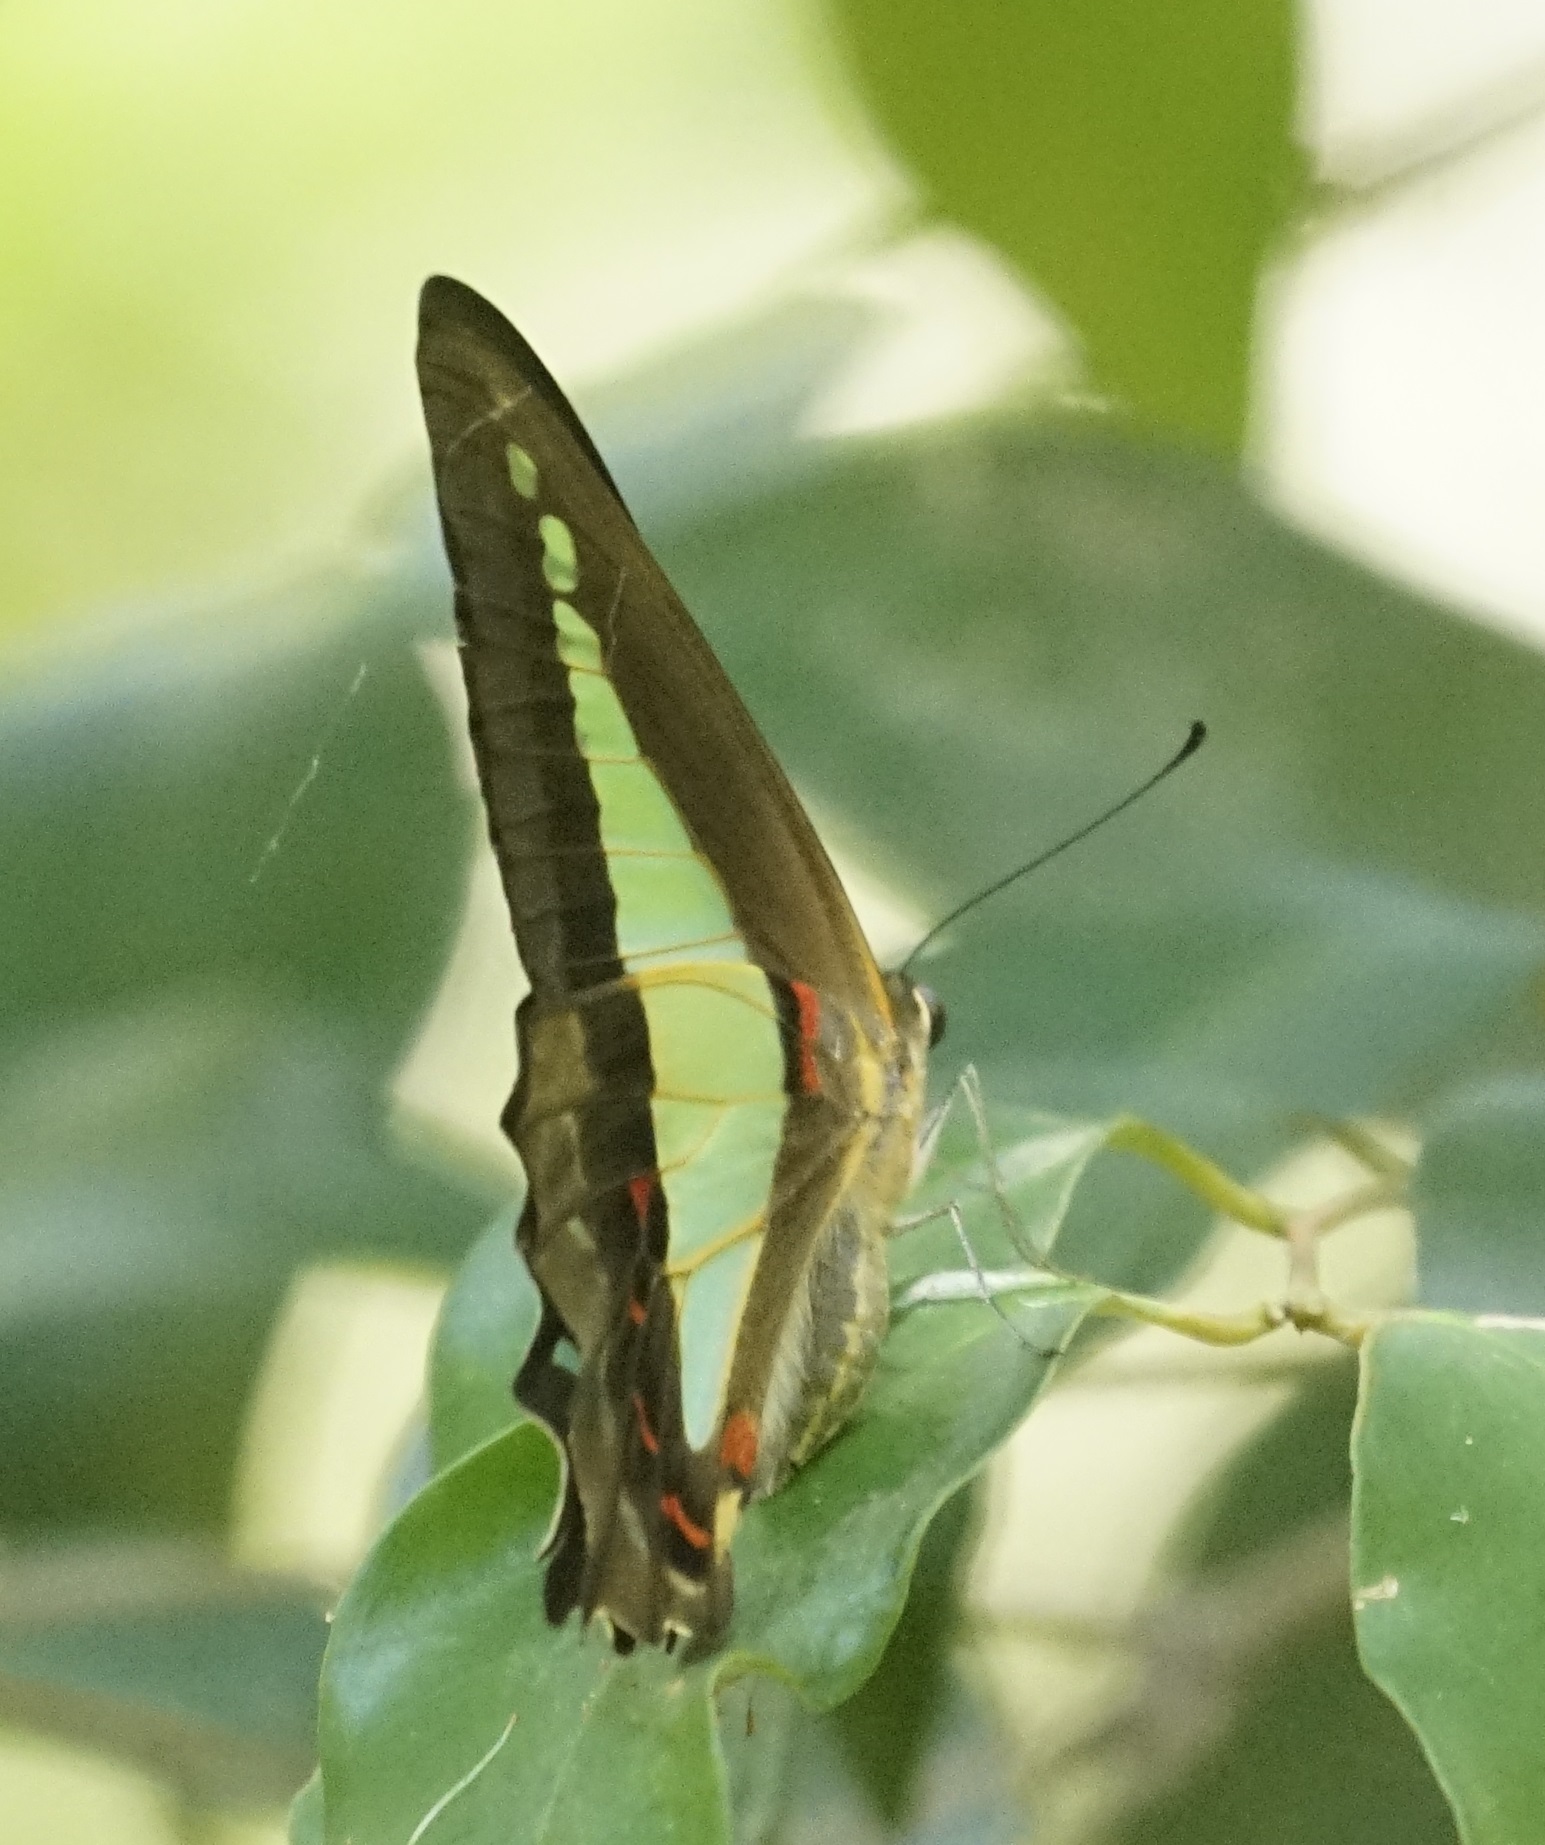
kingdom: Animalia
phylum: Arthropoda
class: Insecta
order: Lepidoptera
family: Papilionidae
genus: Graphium
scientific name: Graphium
